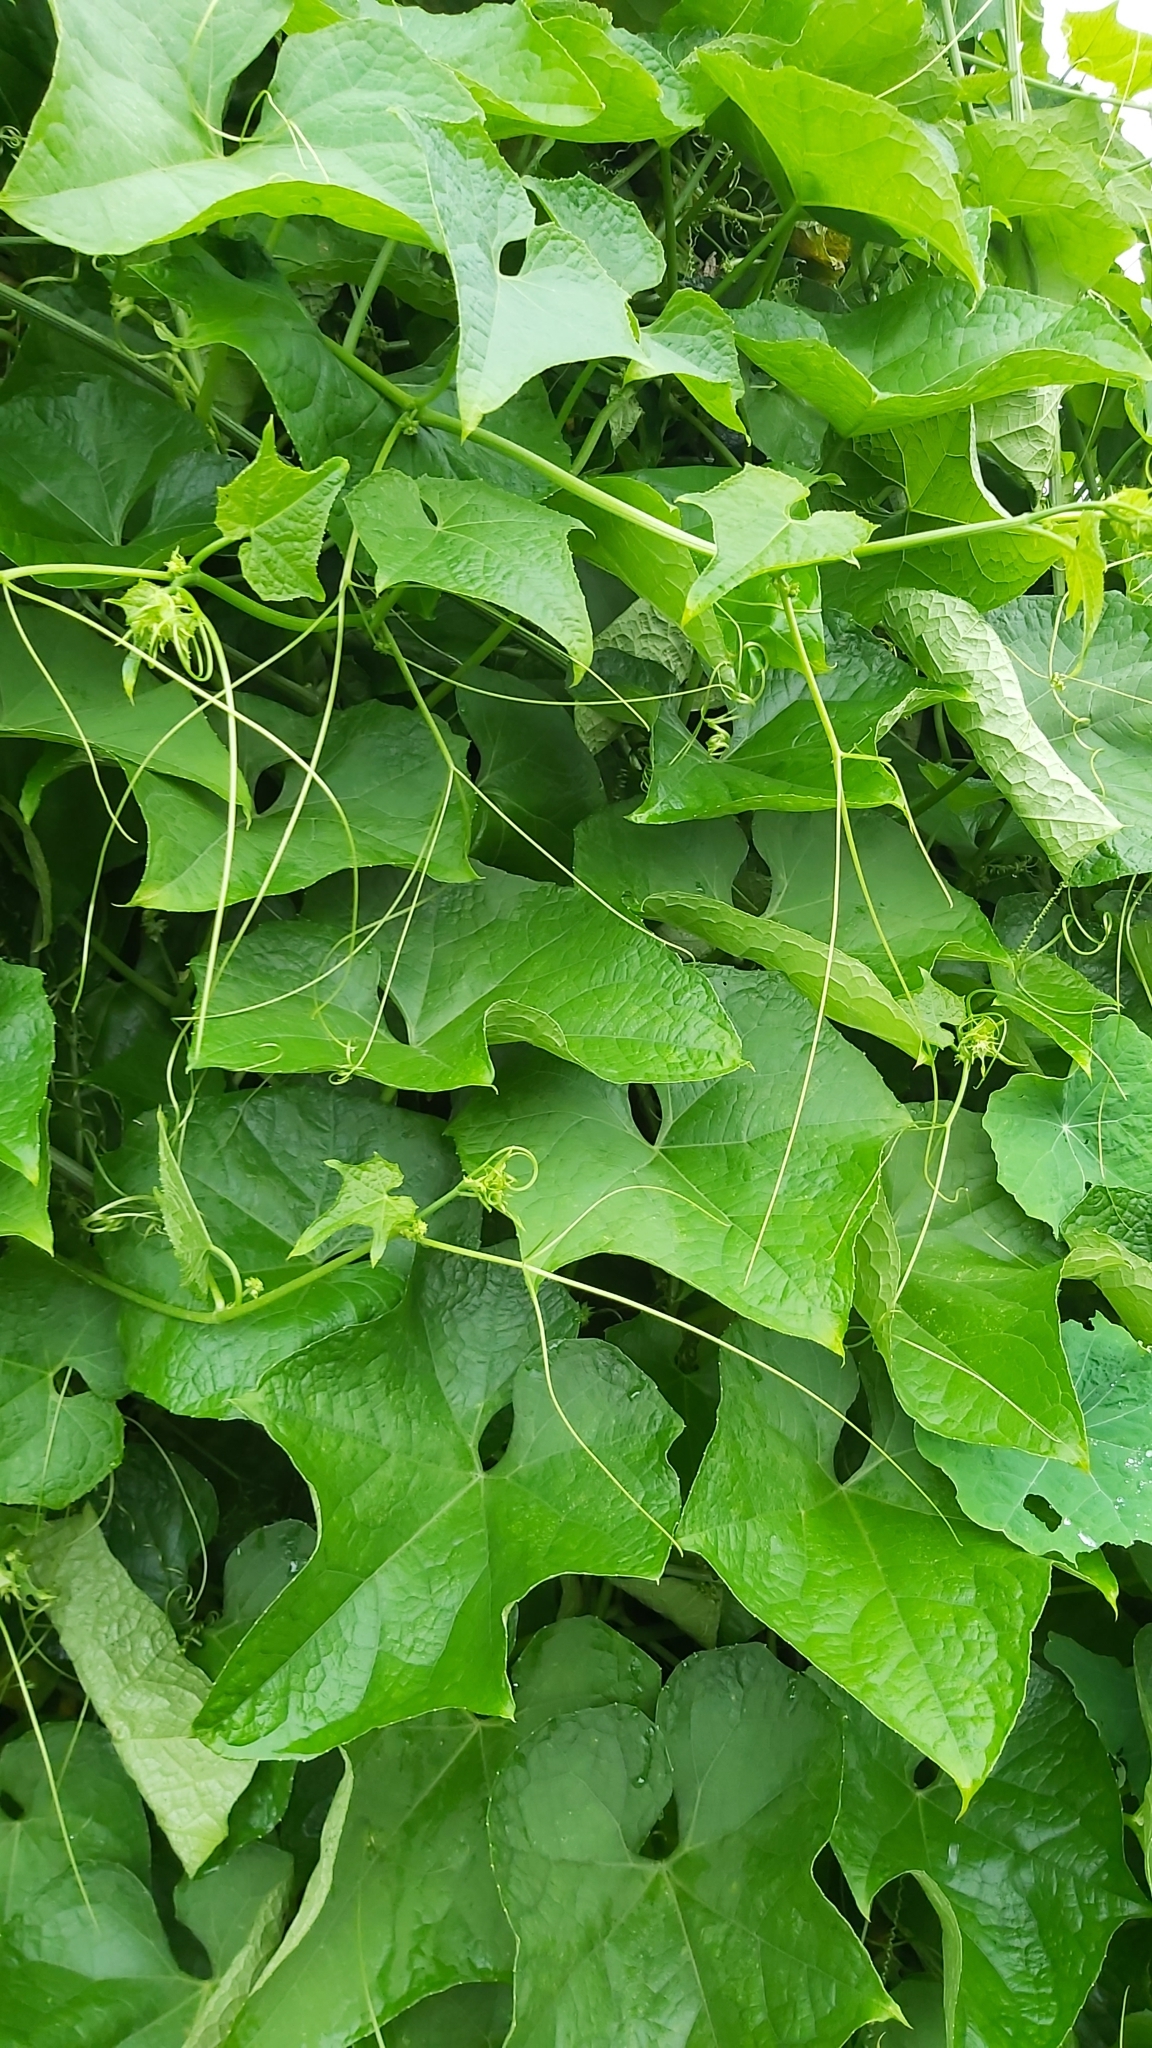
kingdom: Plantae
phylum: Tracheophyta
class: Magnoliopsida
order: Cucurbitales
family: Cucurbitaceae
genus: Sechium
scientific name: Sechium edule
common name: Chayote
